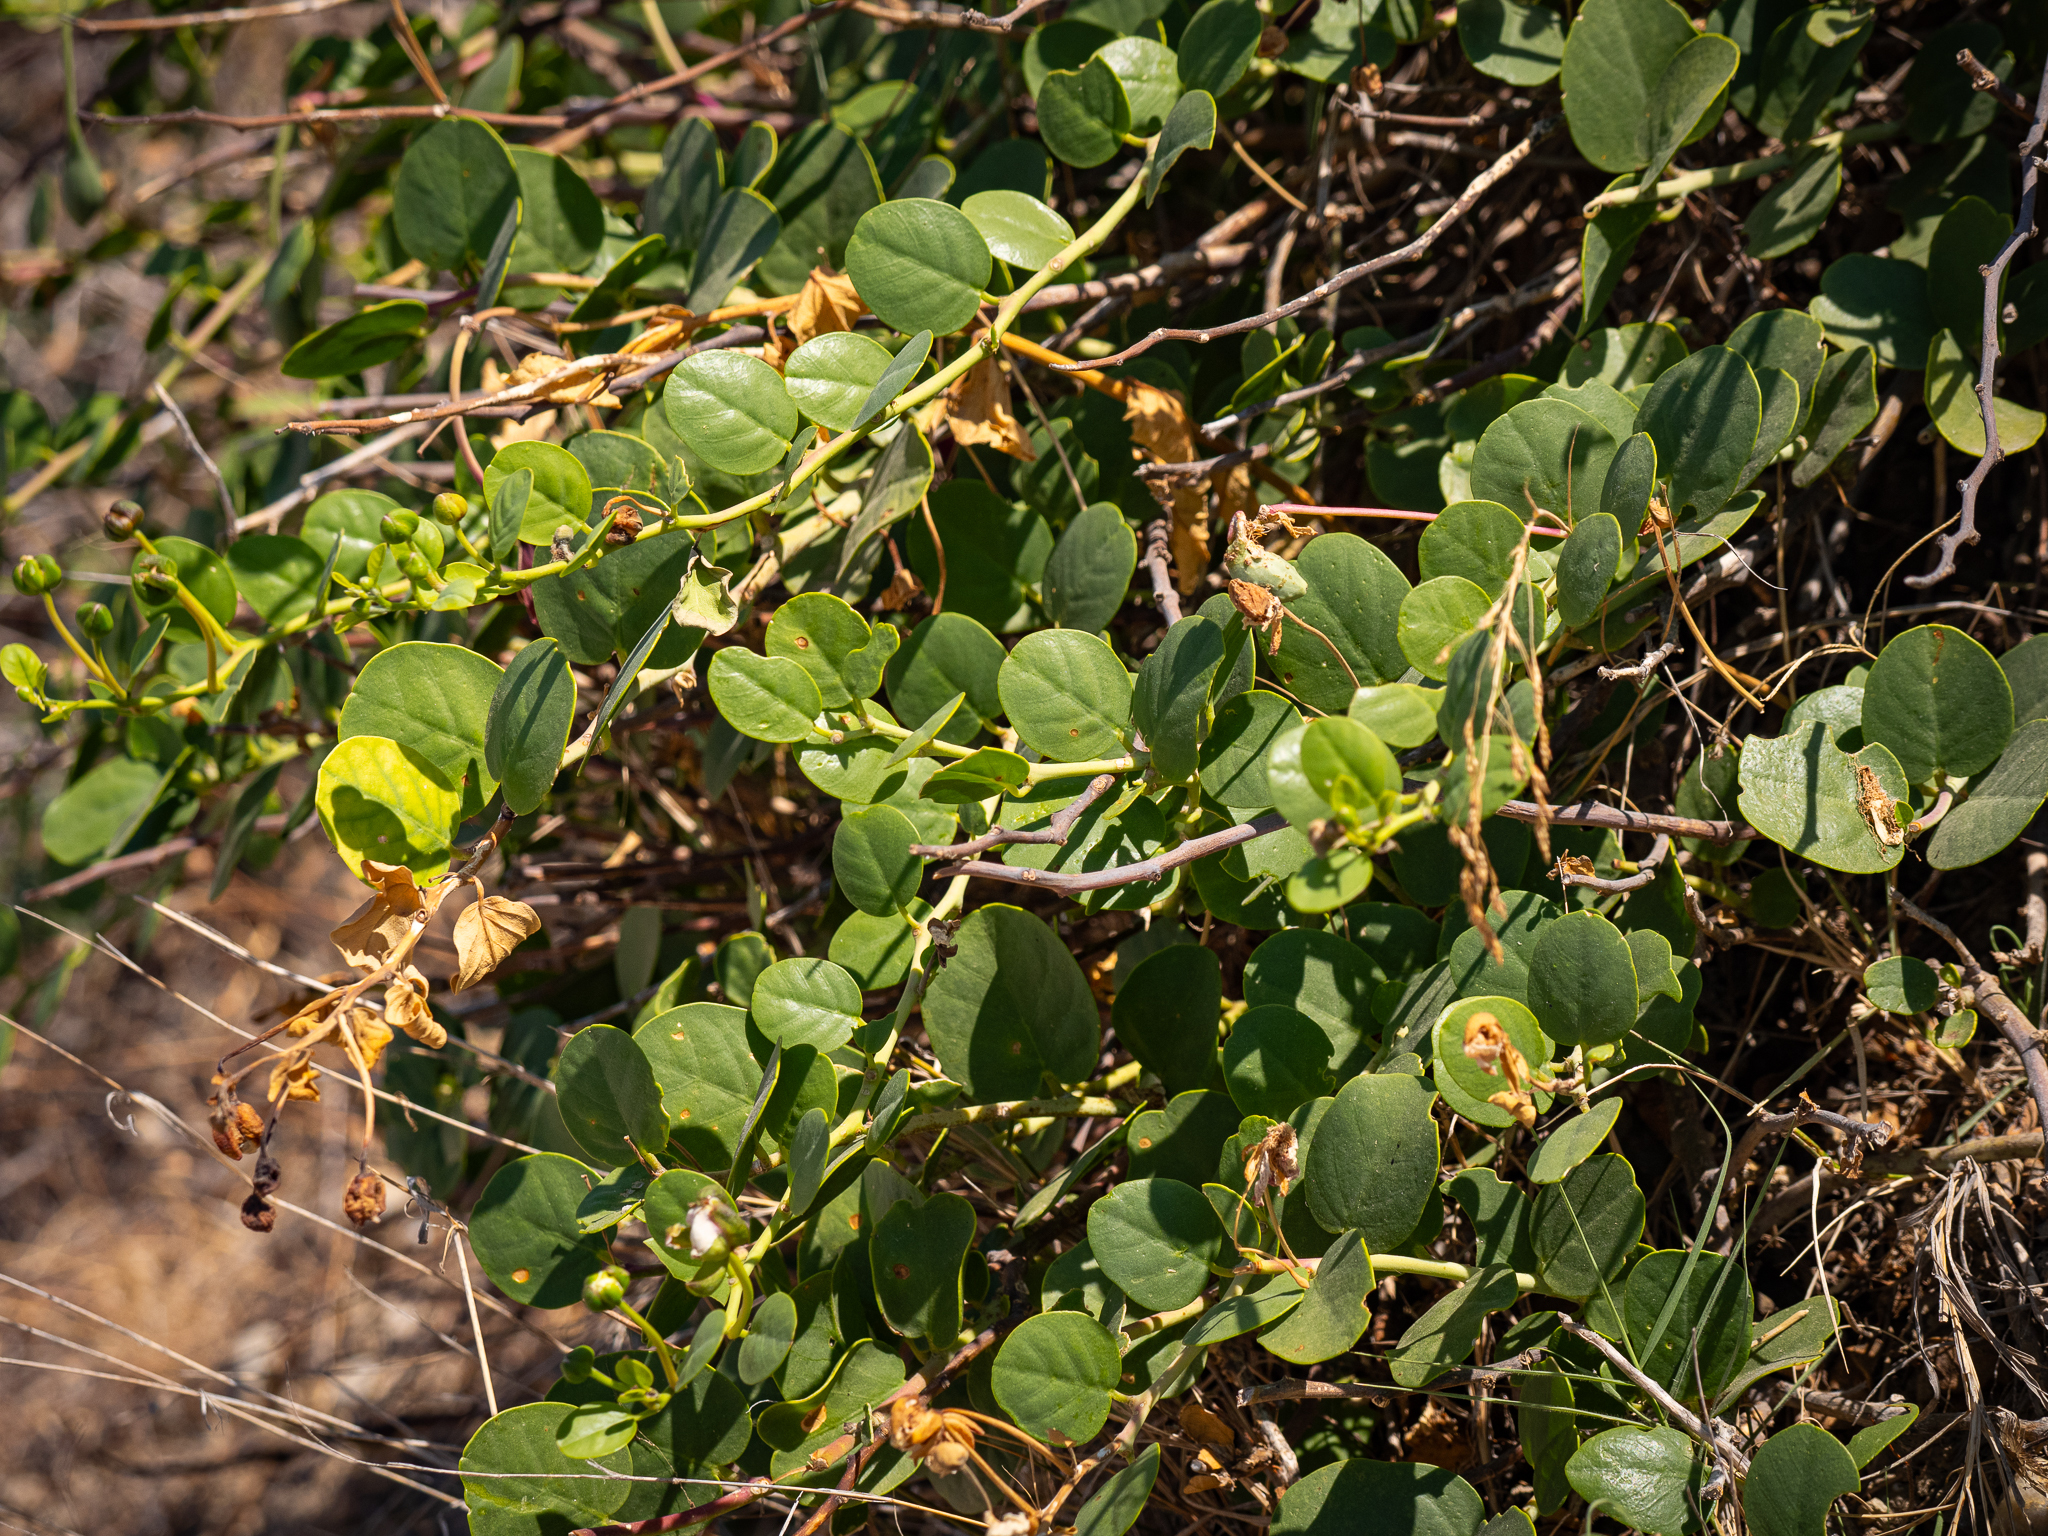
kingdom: Plantae
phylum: Tracheophyta
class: Magnoliopsida
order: Brassicales
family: Capparaceae
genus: Capparis
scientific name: Capparis orientalis
